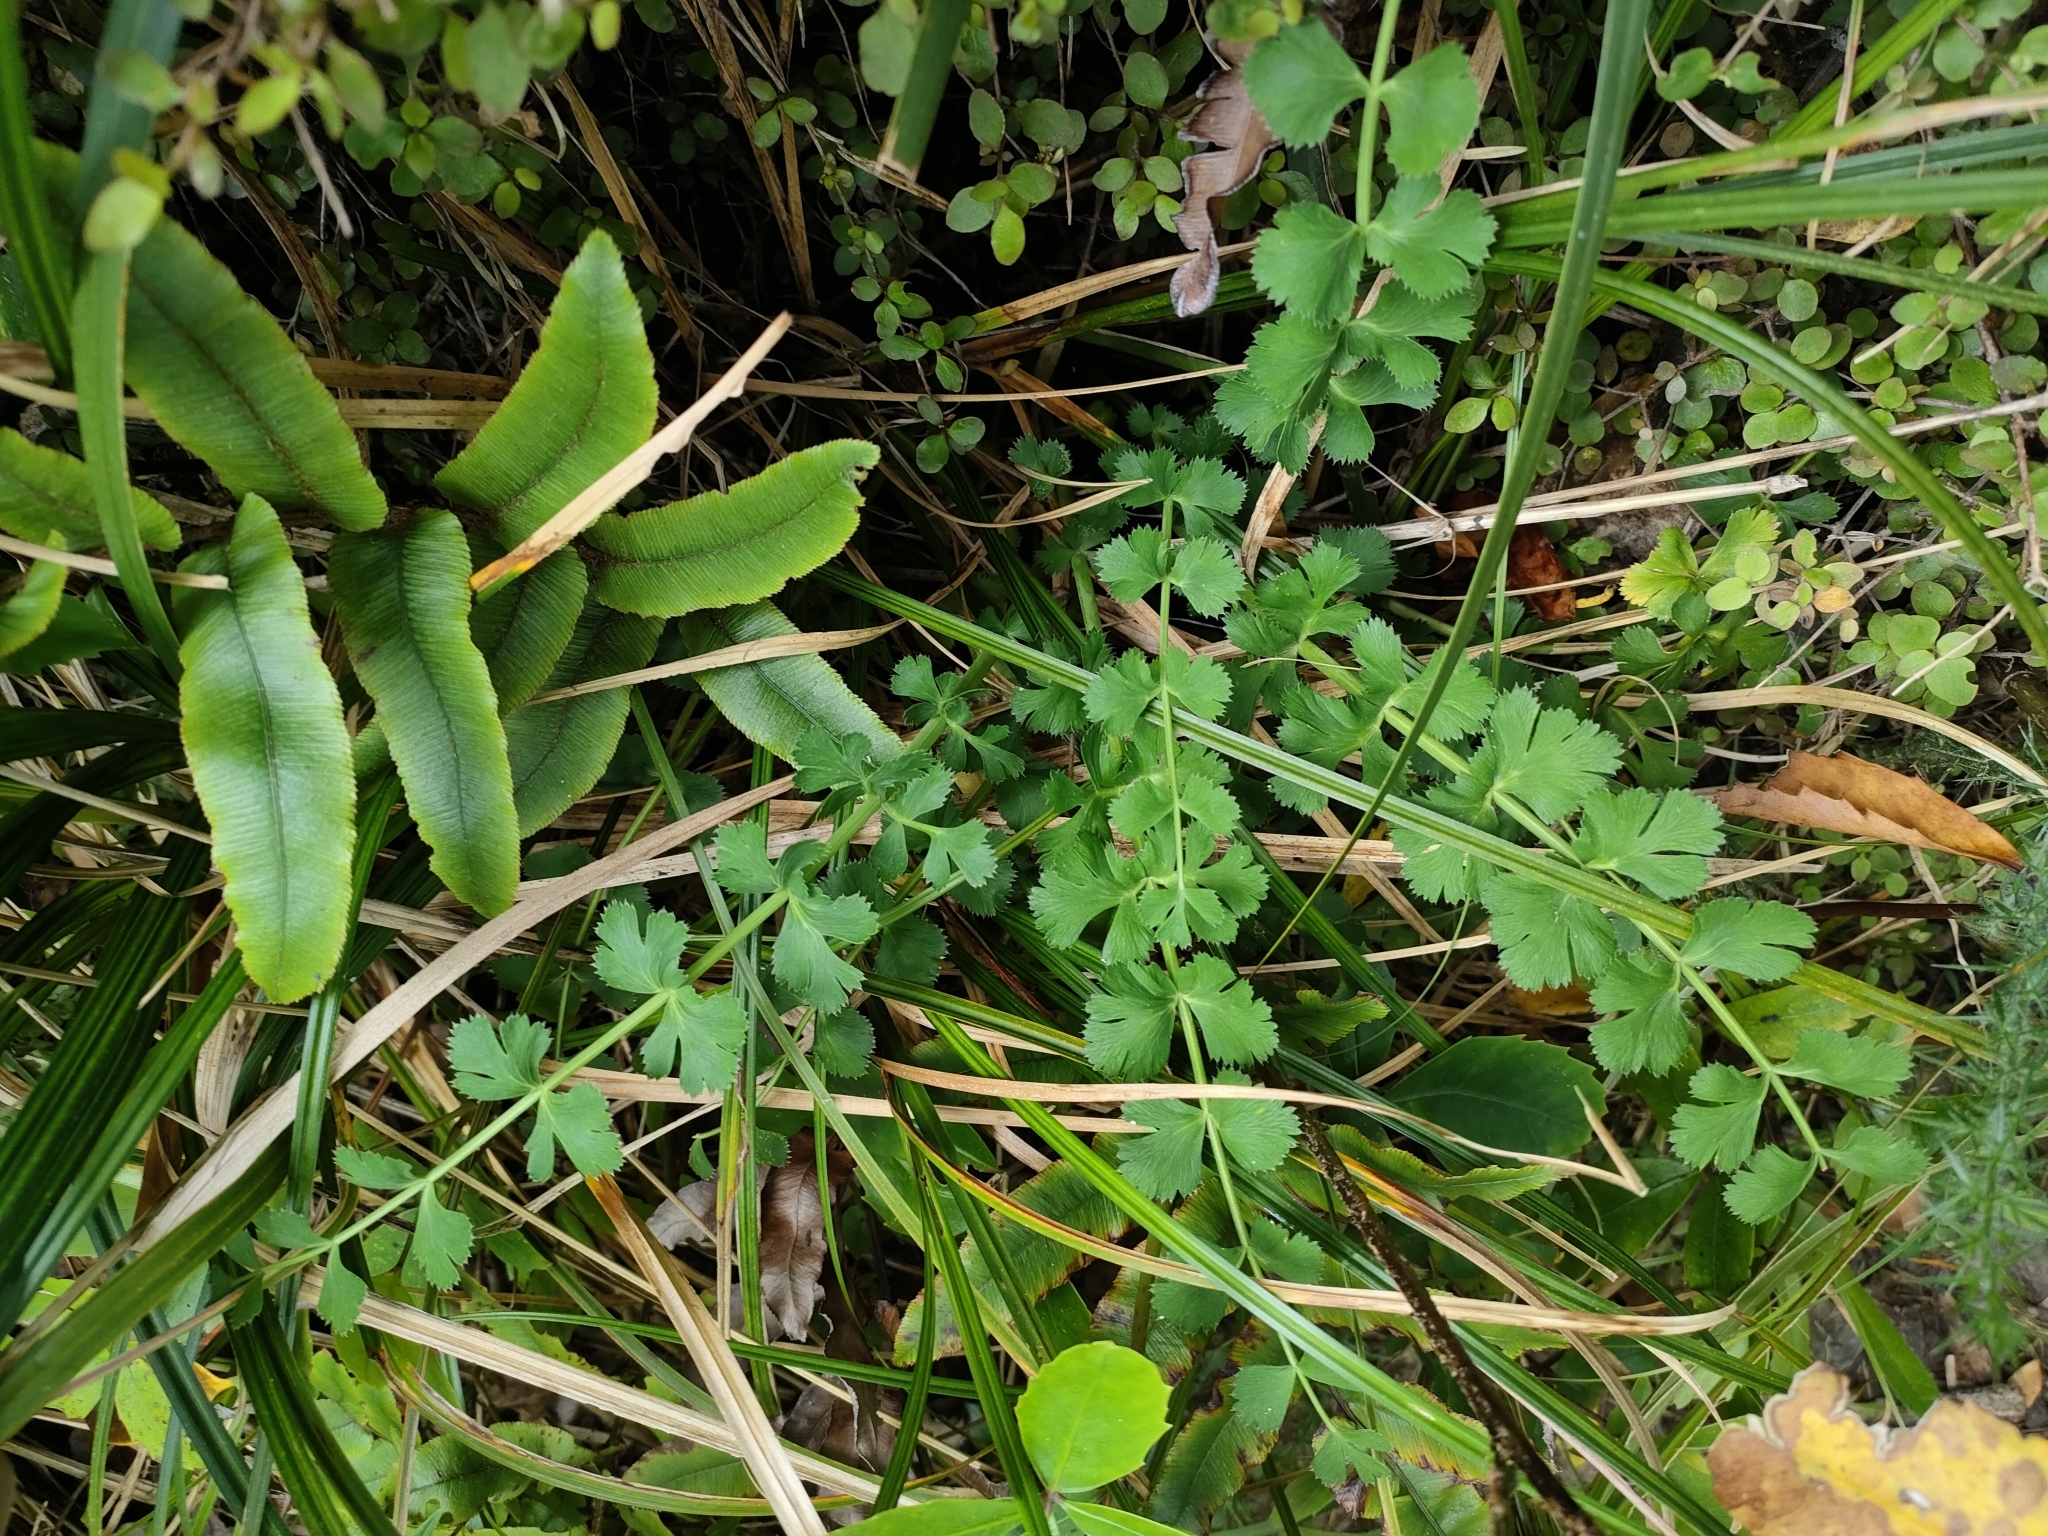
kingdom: Plantae
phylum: Tracheophyta
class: Magnoliopsida
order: Apiales
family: Apiaceae
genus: Anisotome
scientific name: Anisotome aromatica
